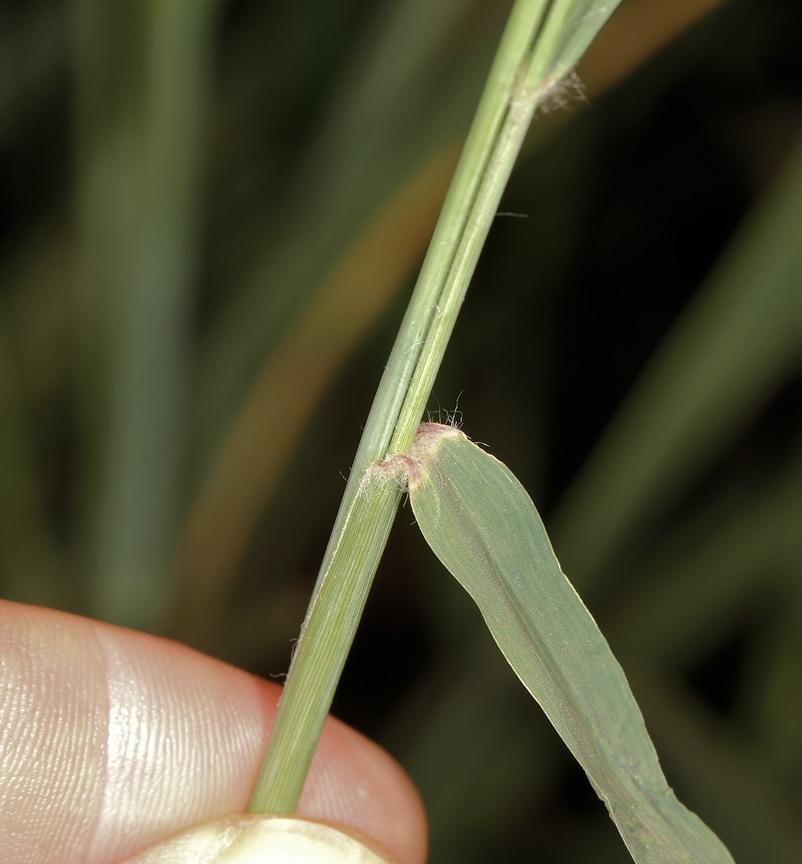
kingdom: Plantae
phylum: Tracheophyta
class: Liliopsida
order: Poales
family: Poaceae
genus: Eragrostis
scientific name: Eragrostis superba
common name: Wilman lovegrass
